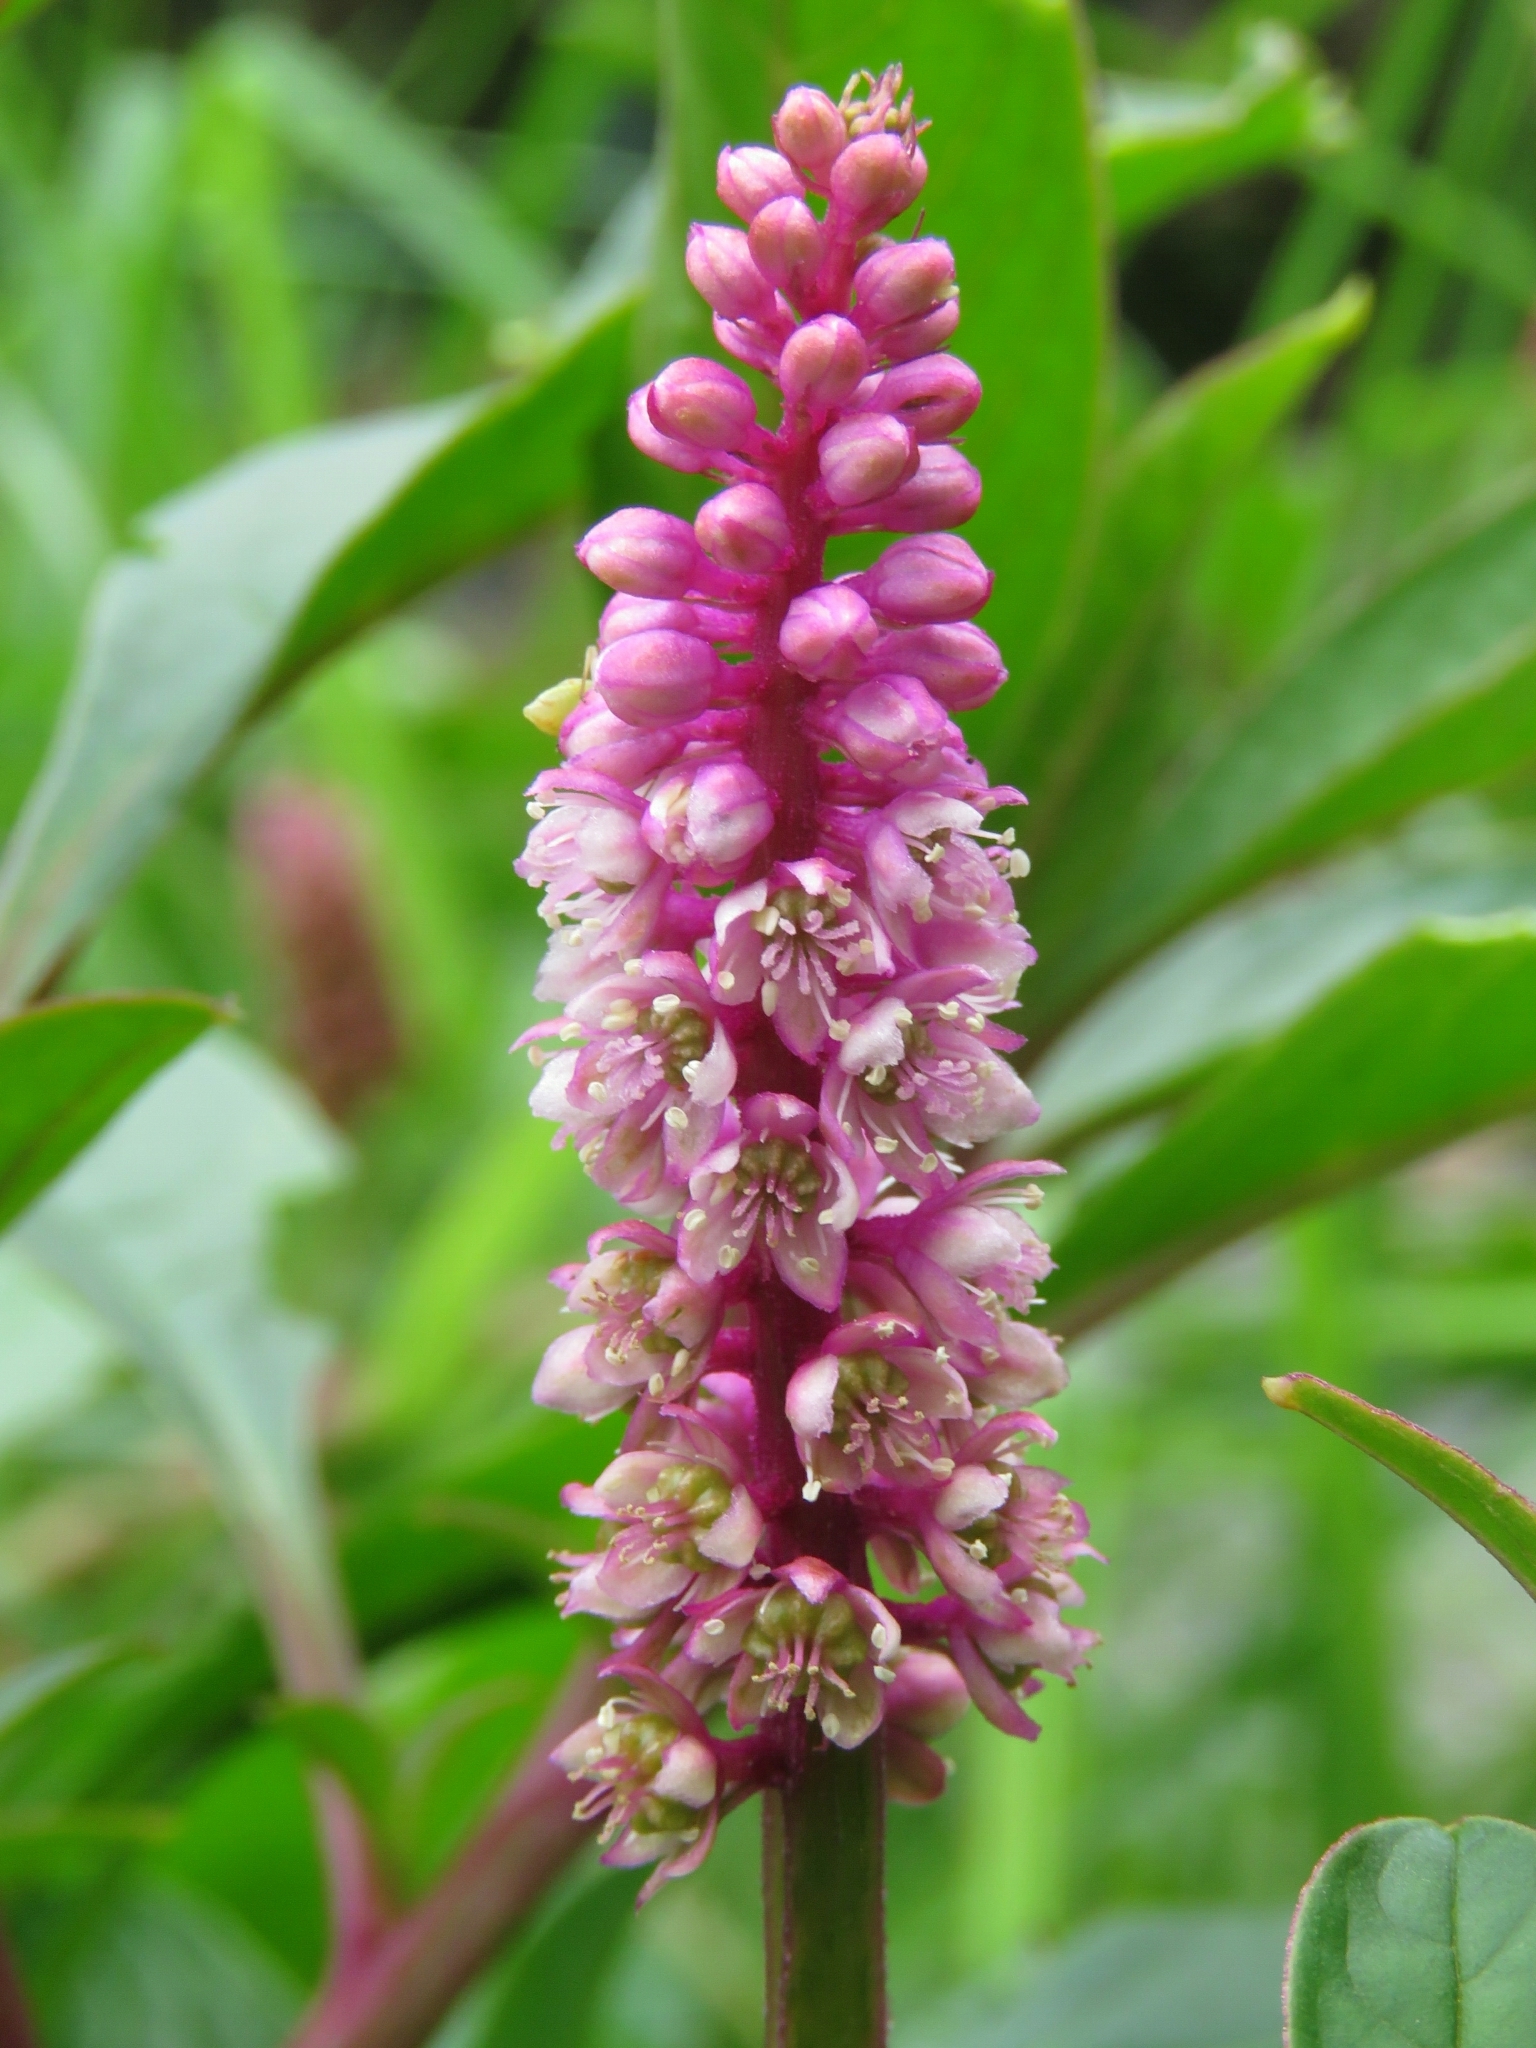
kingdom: Plantae
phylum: Tracheophyta
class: Magnoliopsida
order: Caryophyllales
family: Phytolaccaceae
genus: Phytolacca
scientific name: Phytolacca bogotensis
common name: Southern pokeweed
